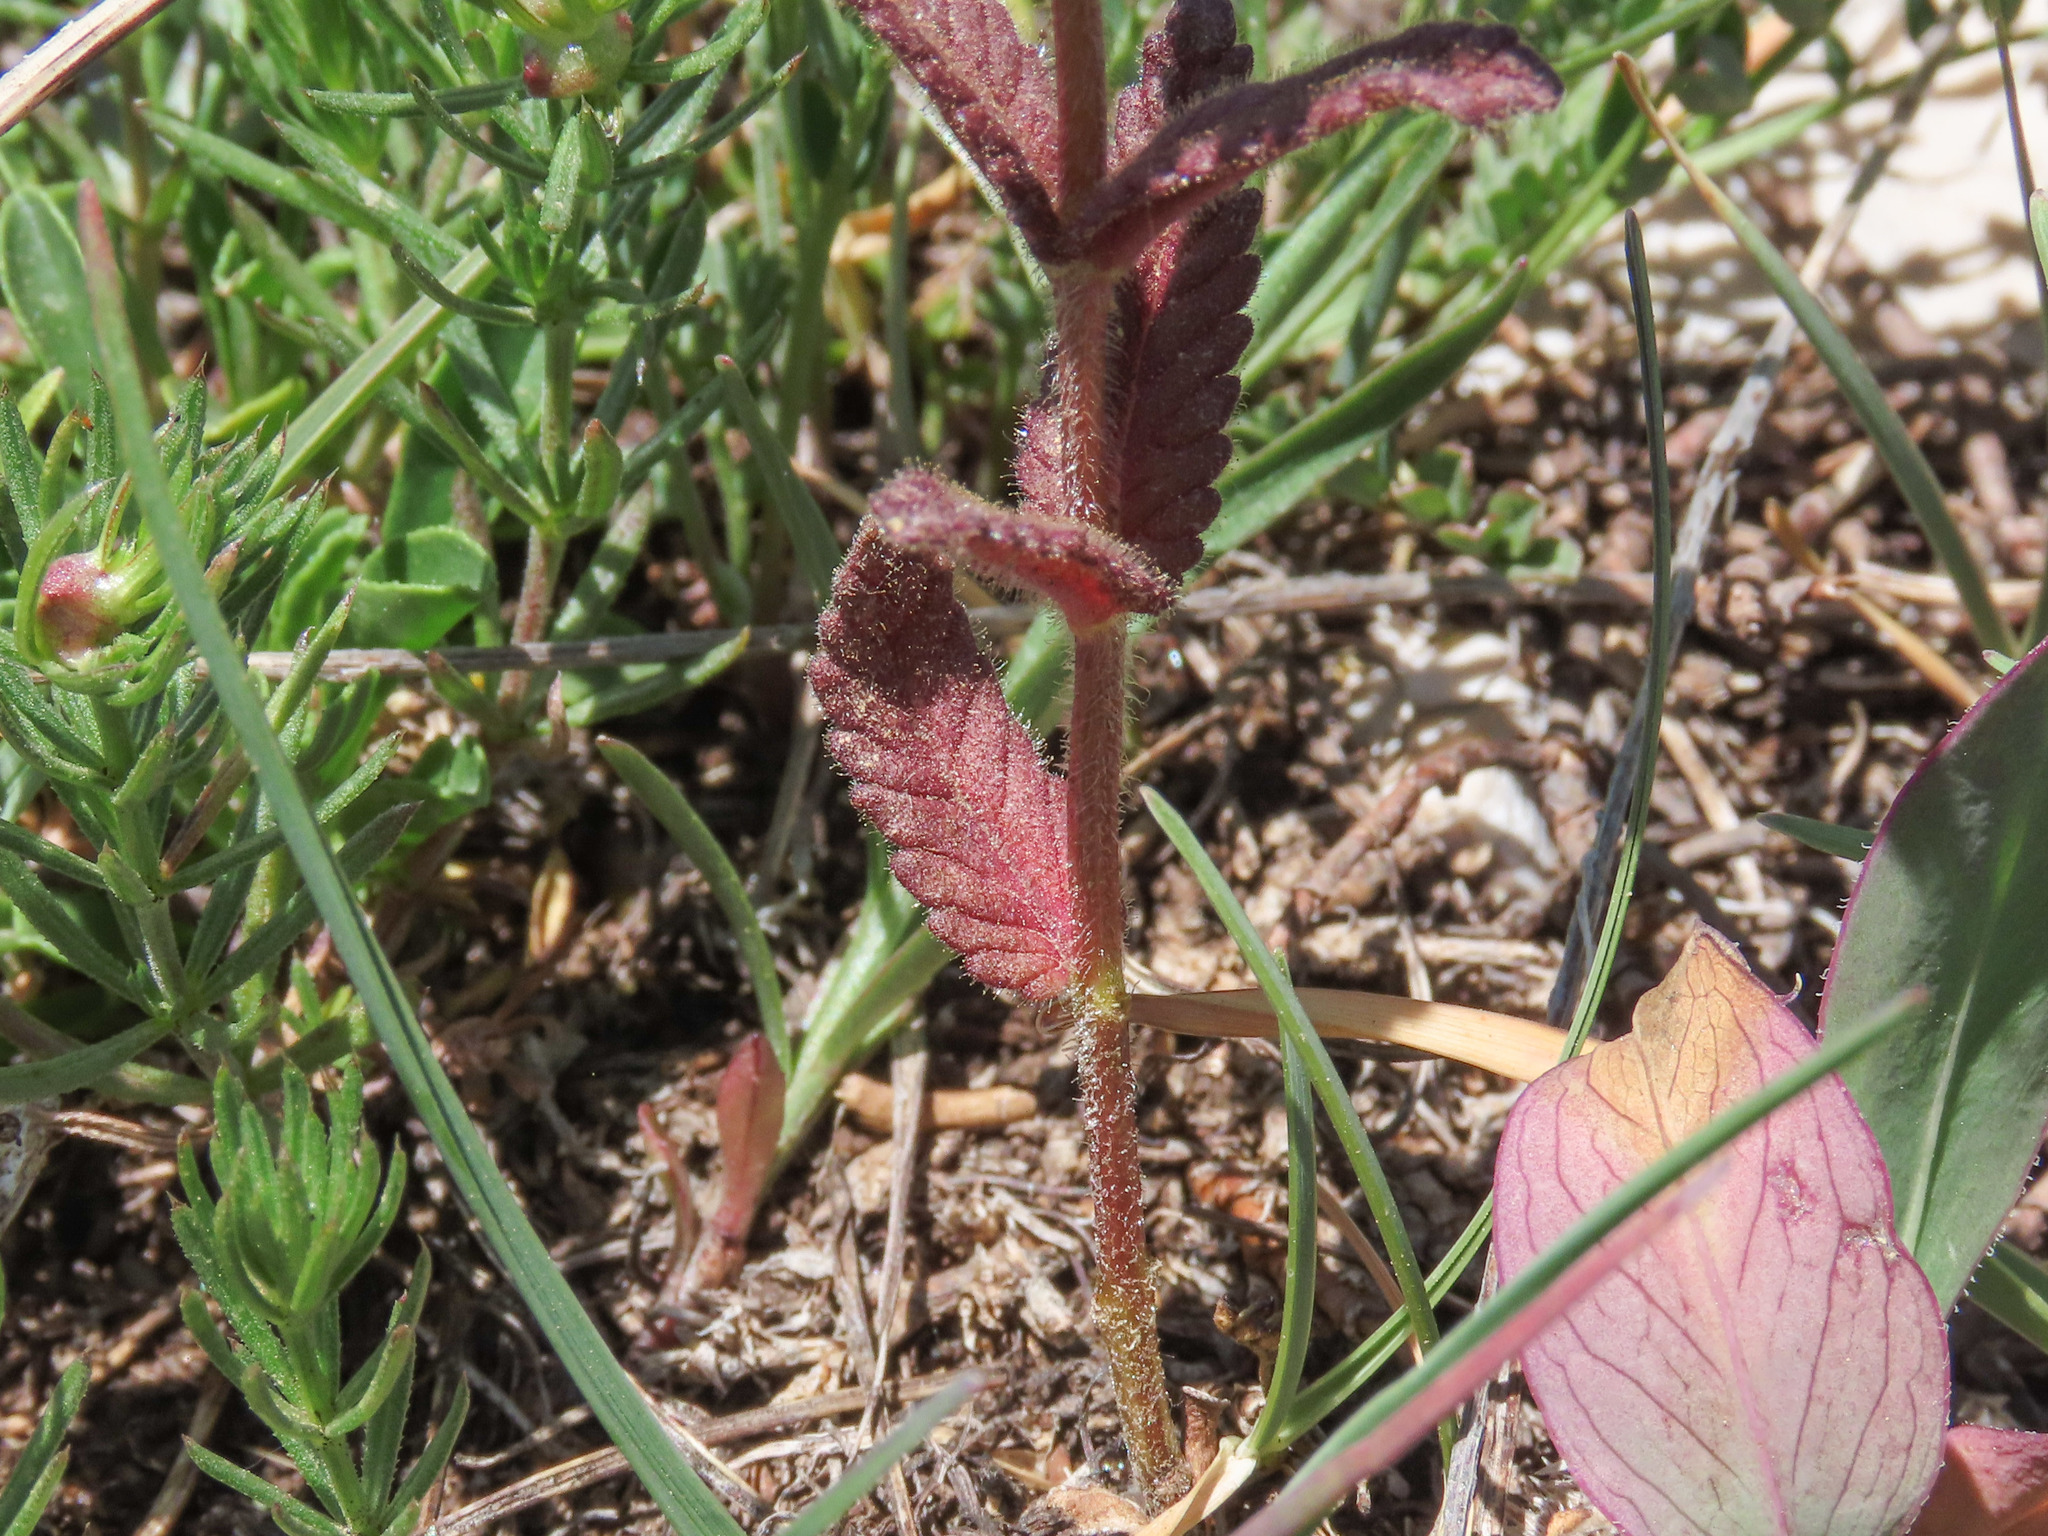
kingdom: Plantae
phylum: Tracheophyta
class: Magnoliopsida
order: Lamiales
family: Orobanchaceae
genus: Rhinanthus
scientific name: Rhinanthus wettsteinii
